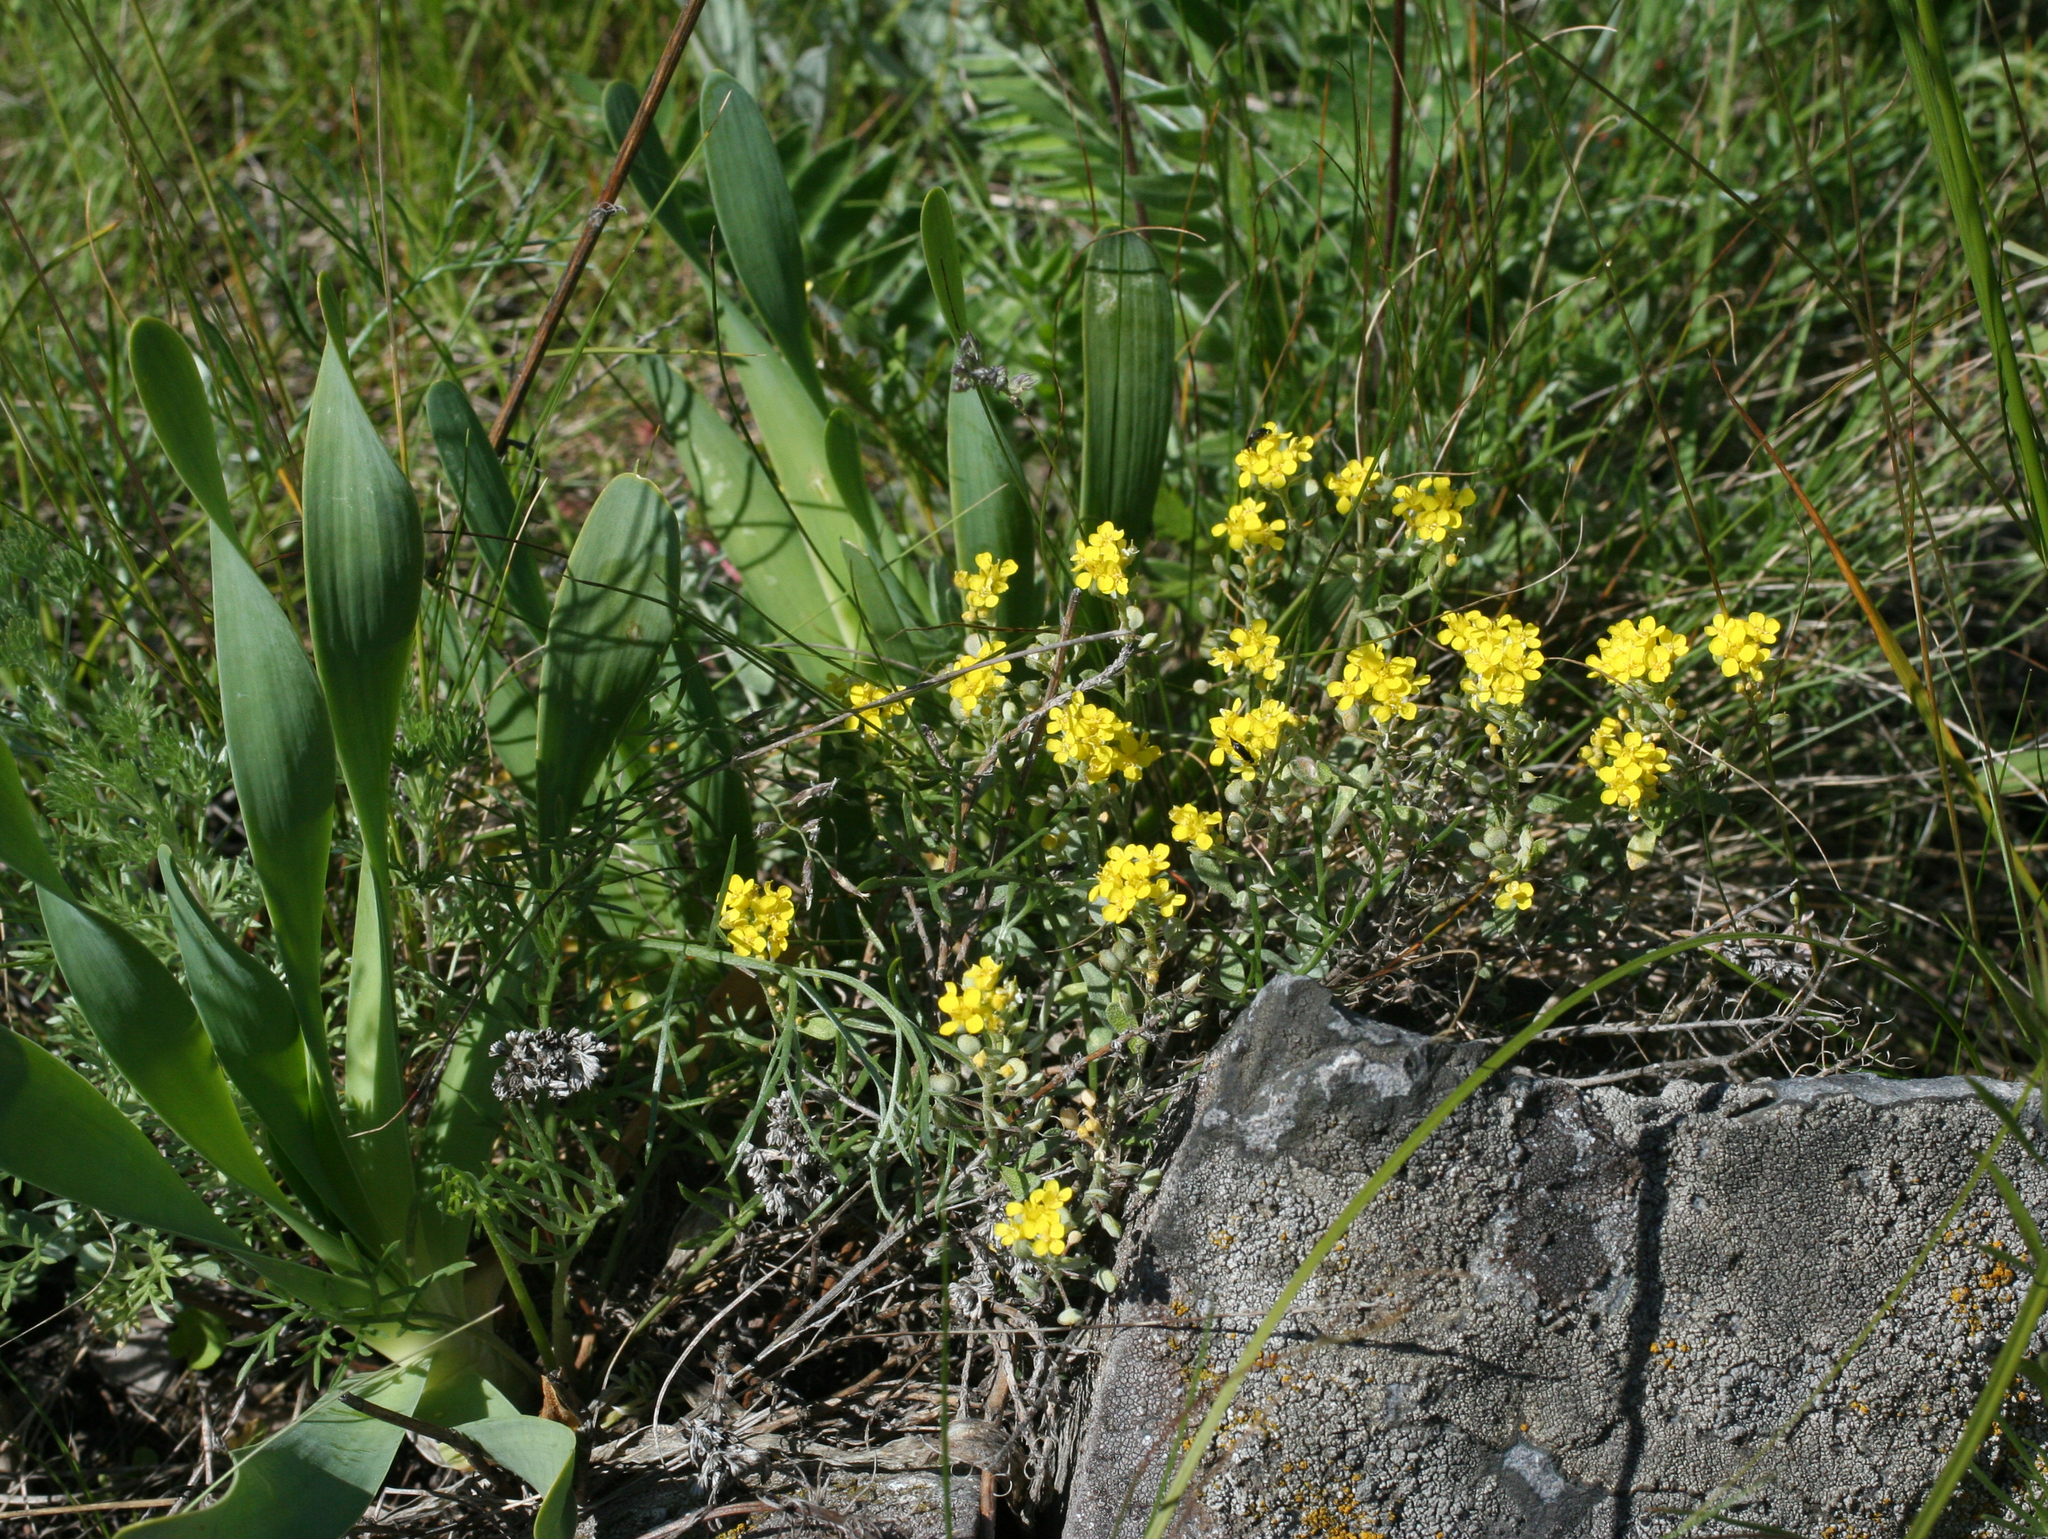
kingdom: Plantae
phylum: Tracheophyta
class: Magnoliopsida
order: Brassicales
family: Brassicaceae
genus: Odontarrhena
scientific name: Odontarrhena obovata
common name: American alyssum
